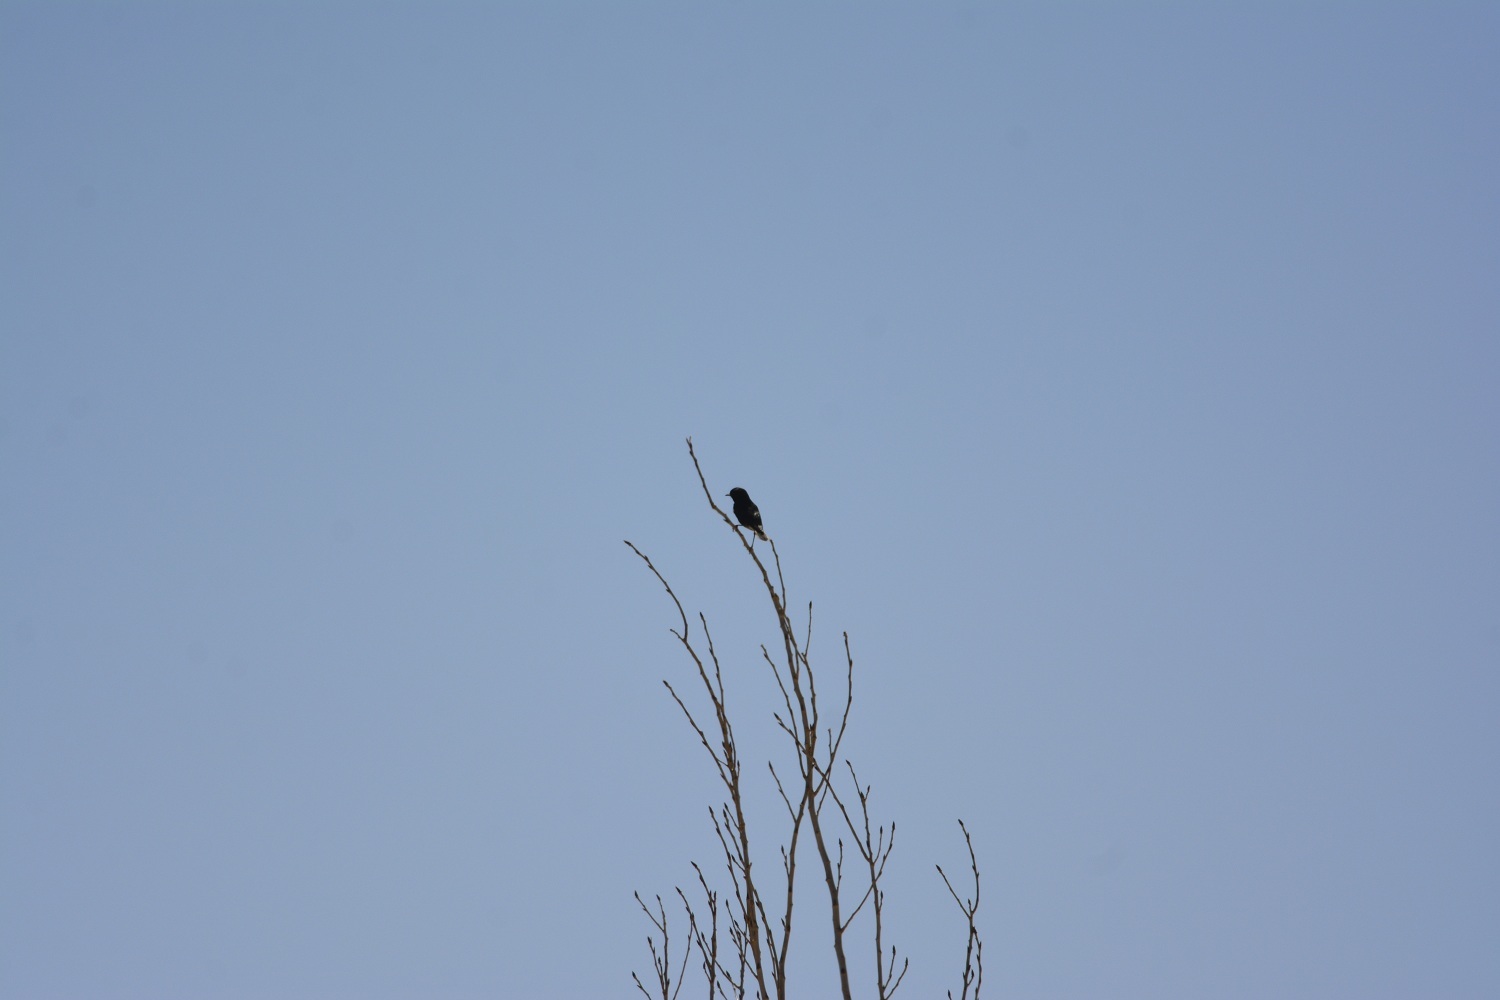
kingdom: Animalia
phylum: Chordata
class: Aves
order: Passeriformes
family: Muscicapidae
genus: Oenanthe
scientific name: Oenanthe leucopyga
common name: White-crowned wheatear
